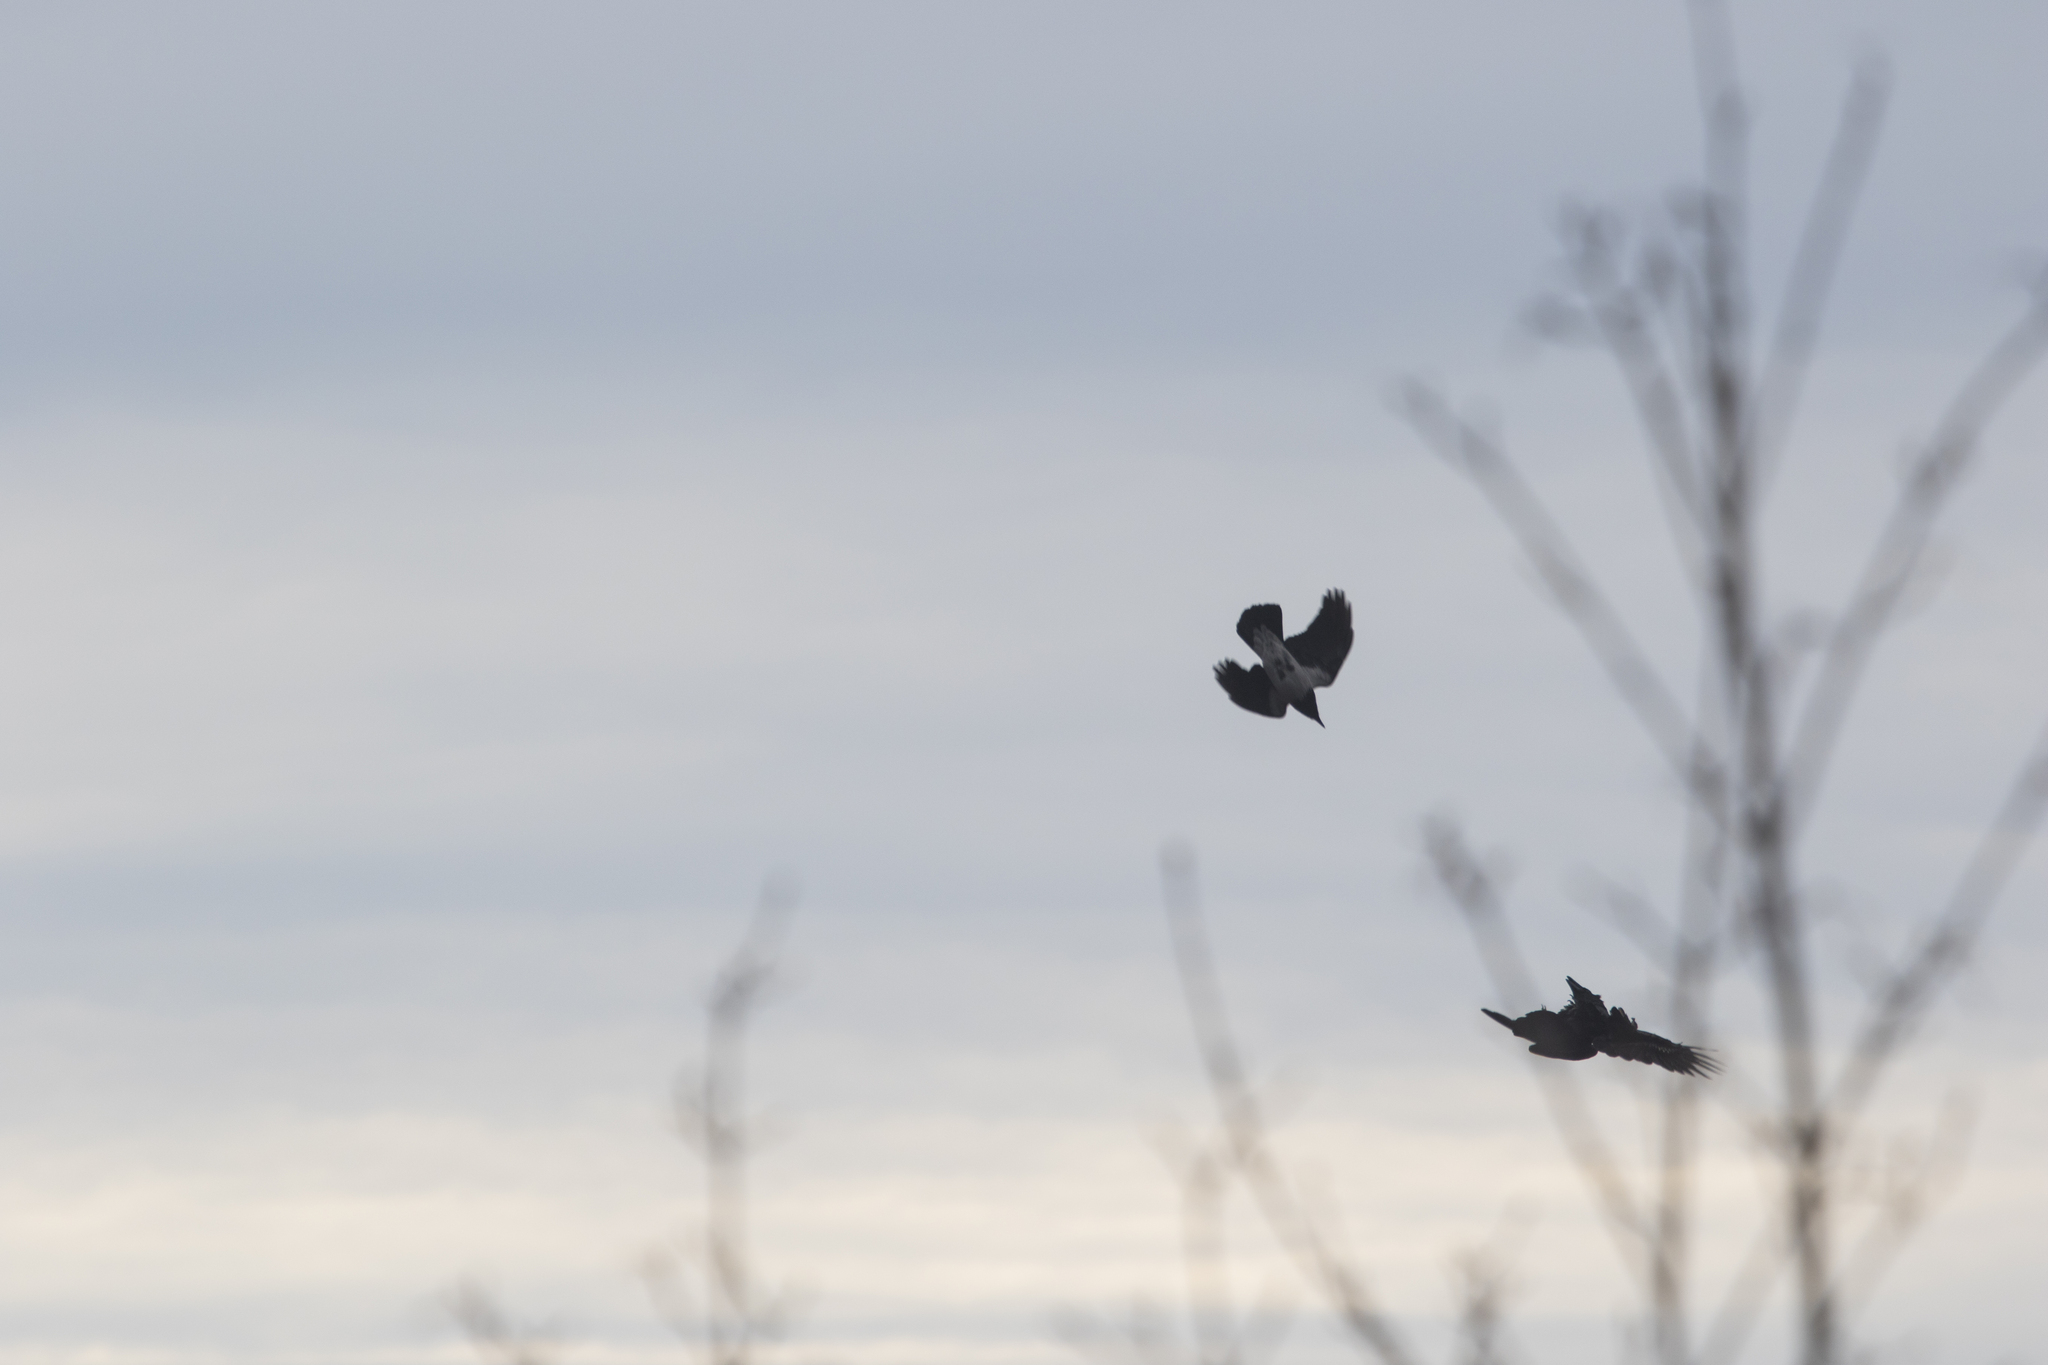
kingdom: Animalia
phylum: Chordata
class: Aves
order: Passeriformes
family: Corvidae
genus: Corvus
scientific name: Corvus cornix
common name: Hooded crow
